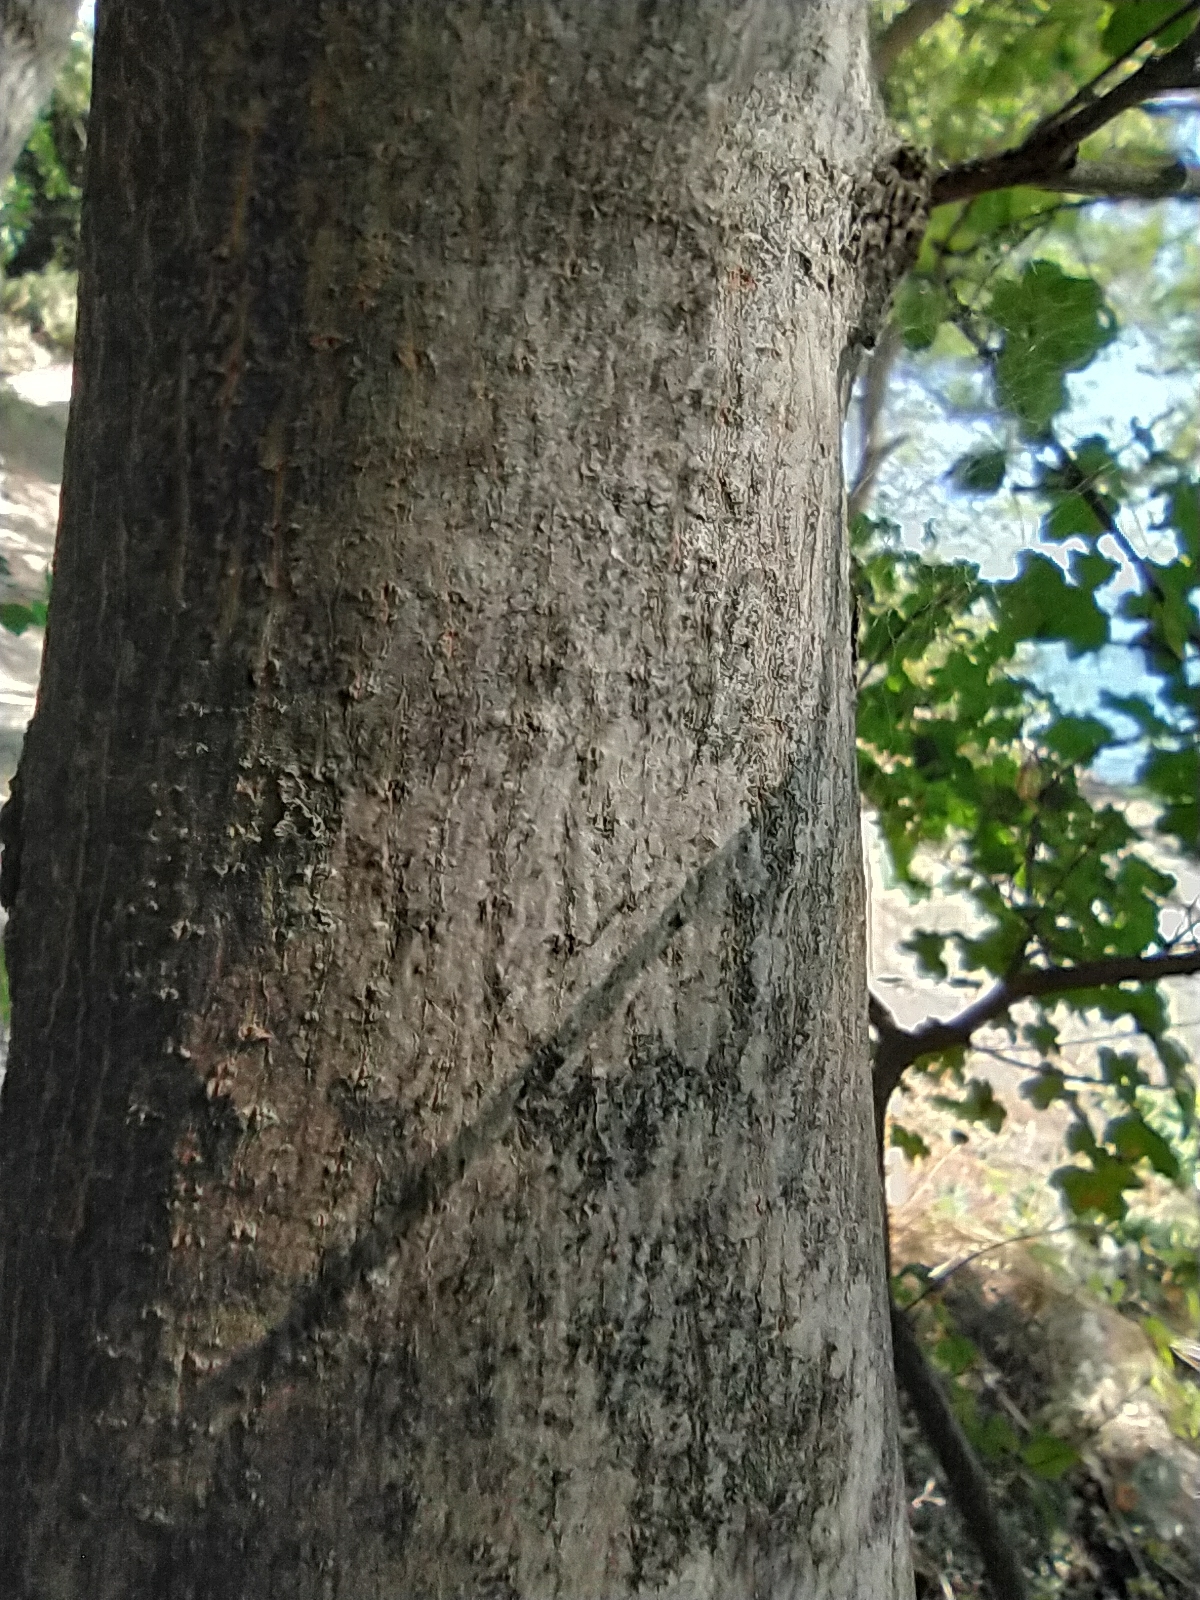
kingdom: Plantae
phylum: Tracheophyta
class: Magnoliopsida
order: Sapindales
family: Sapindaceae
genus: Acer
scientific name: Acer campestre
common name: Field maple
